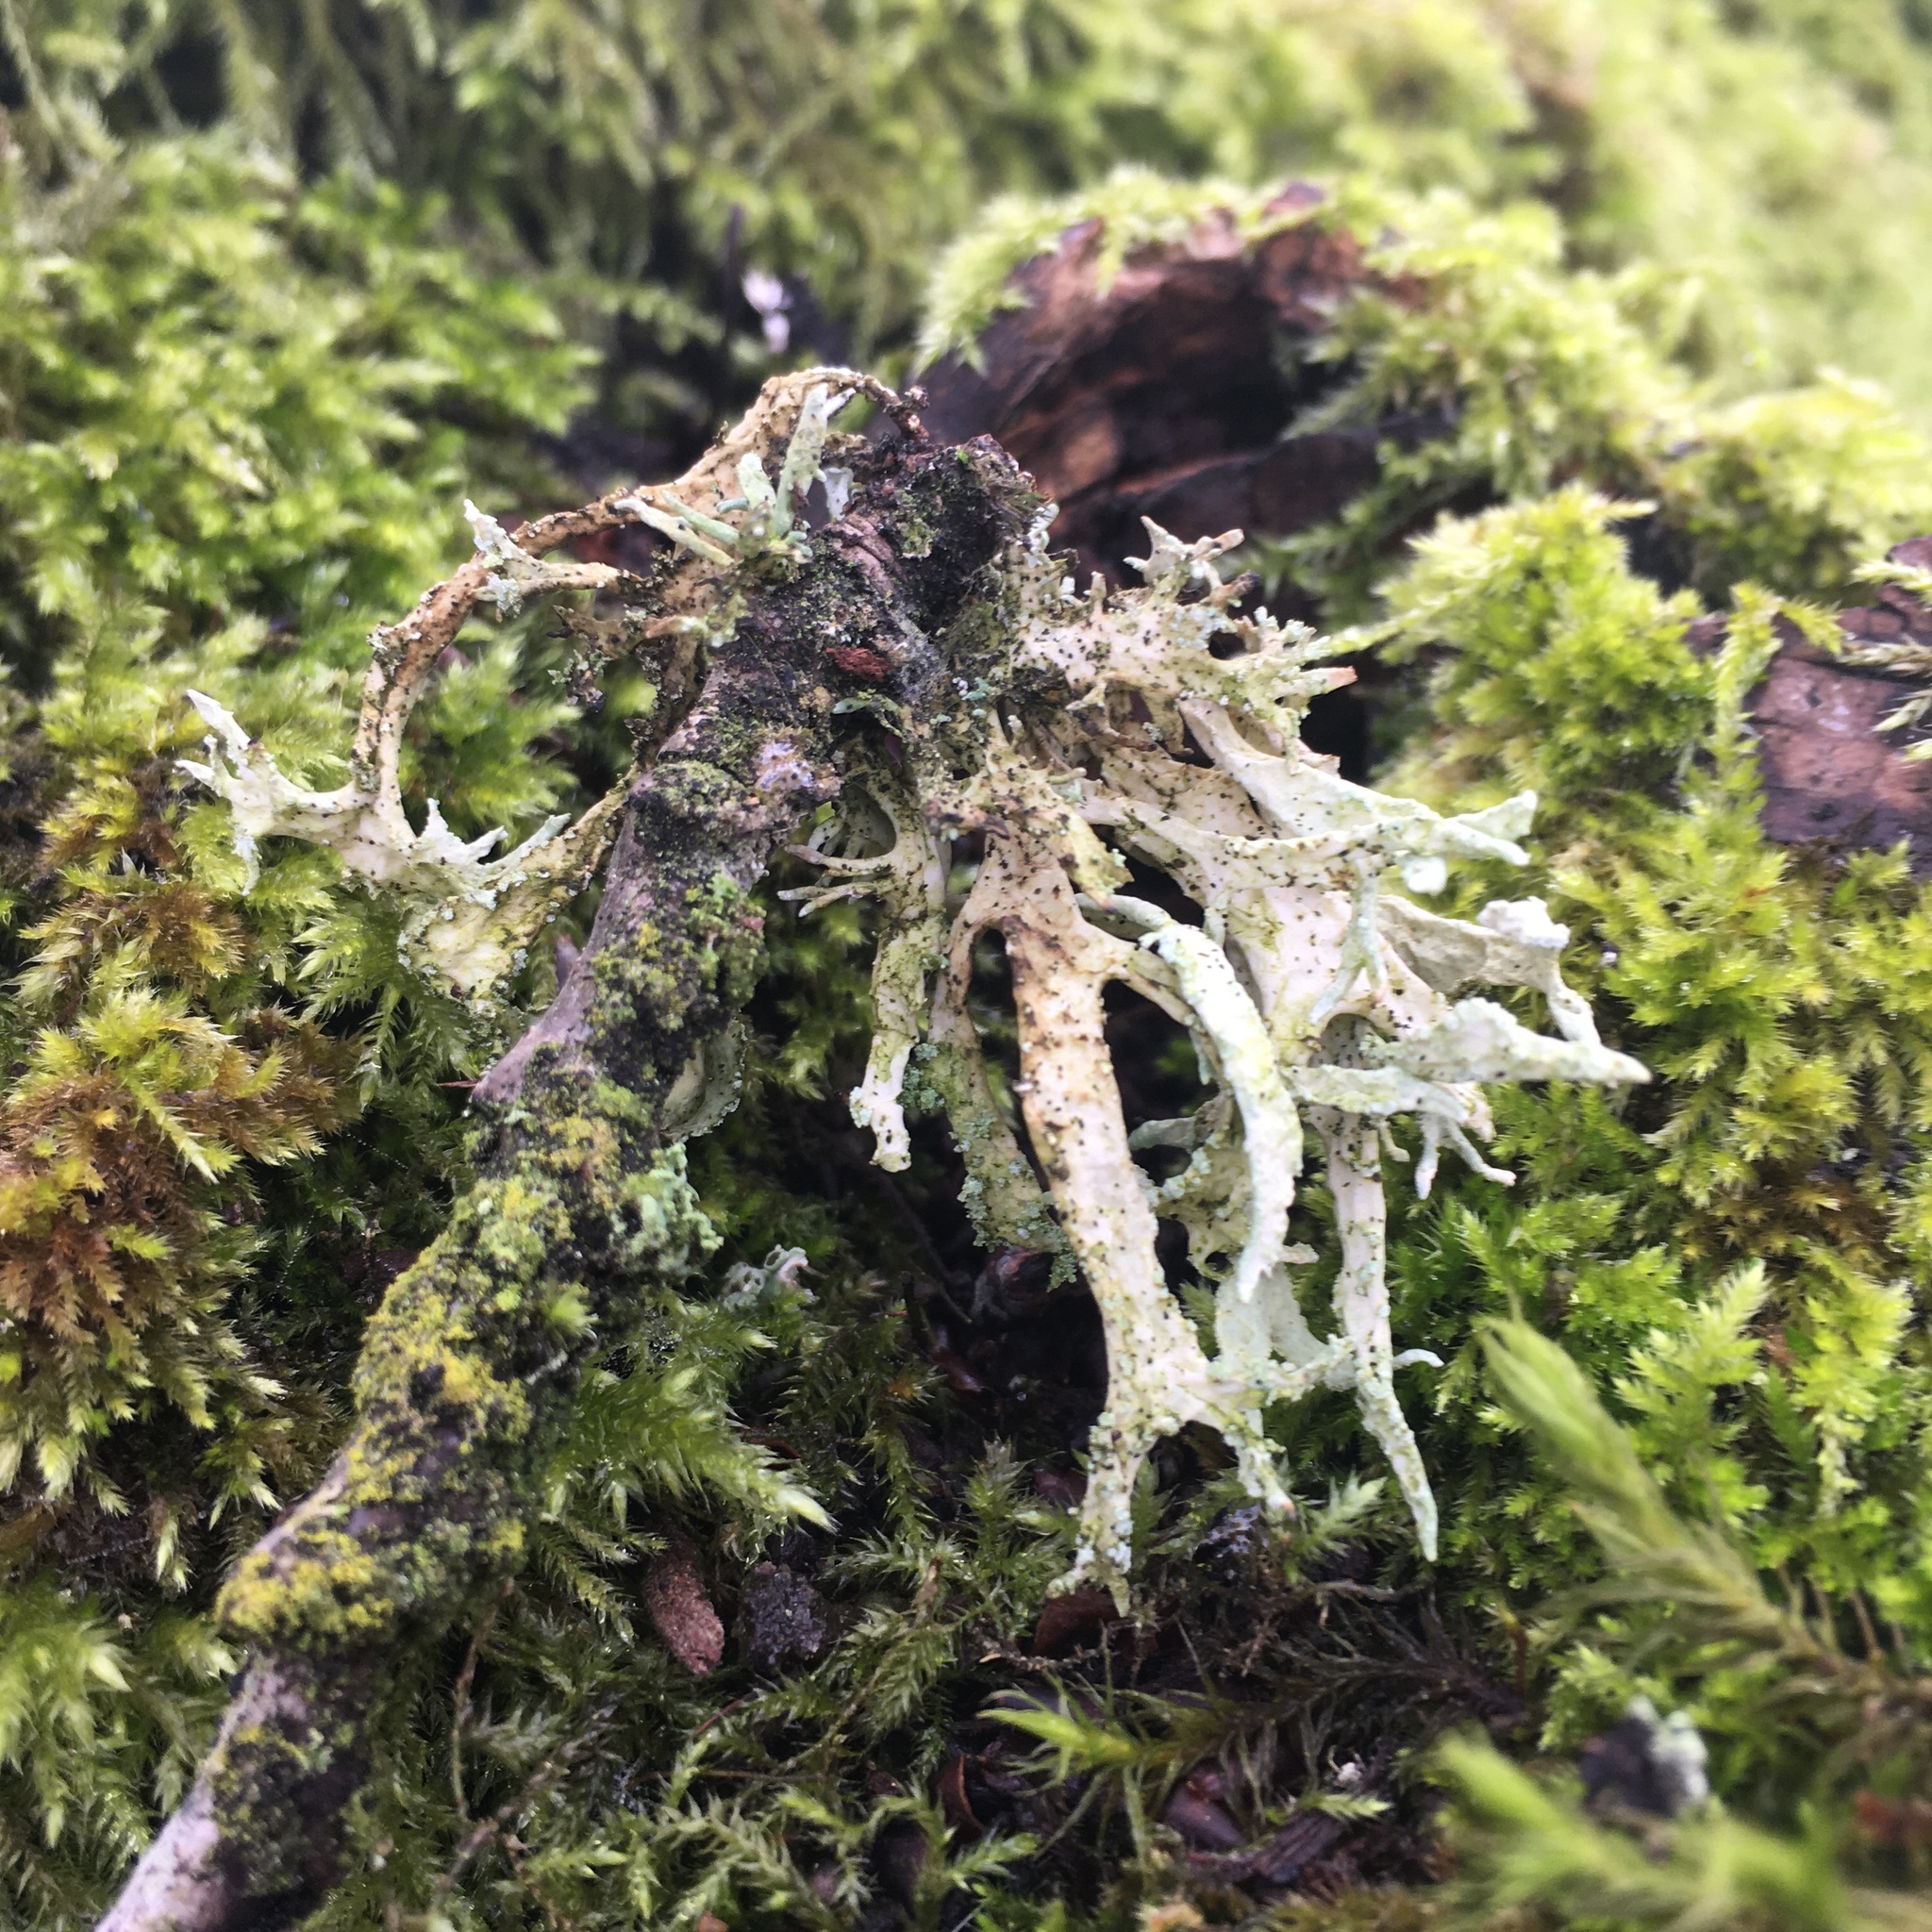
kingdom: Fungi
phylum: Ascomycota
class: Lecanoromycetes
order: Lecanorales
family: Parmeliaceae
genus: Evernia
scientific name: Evernia prunastri
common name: Oak moss
